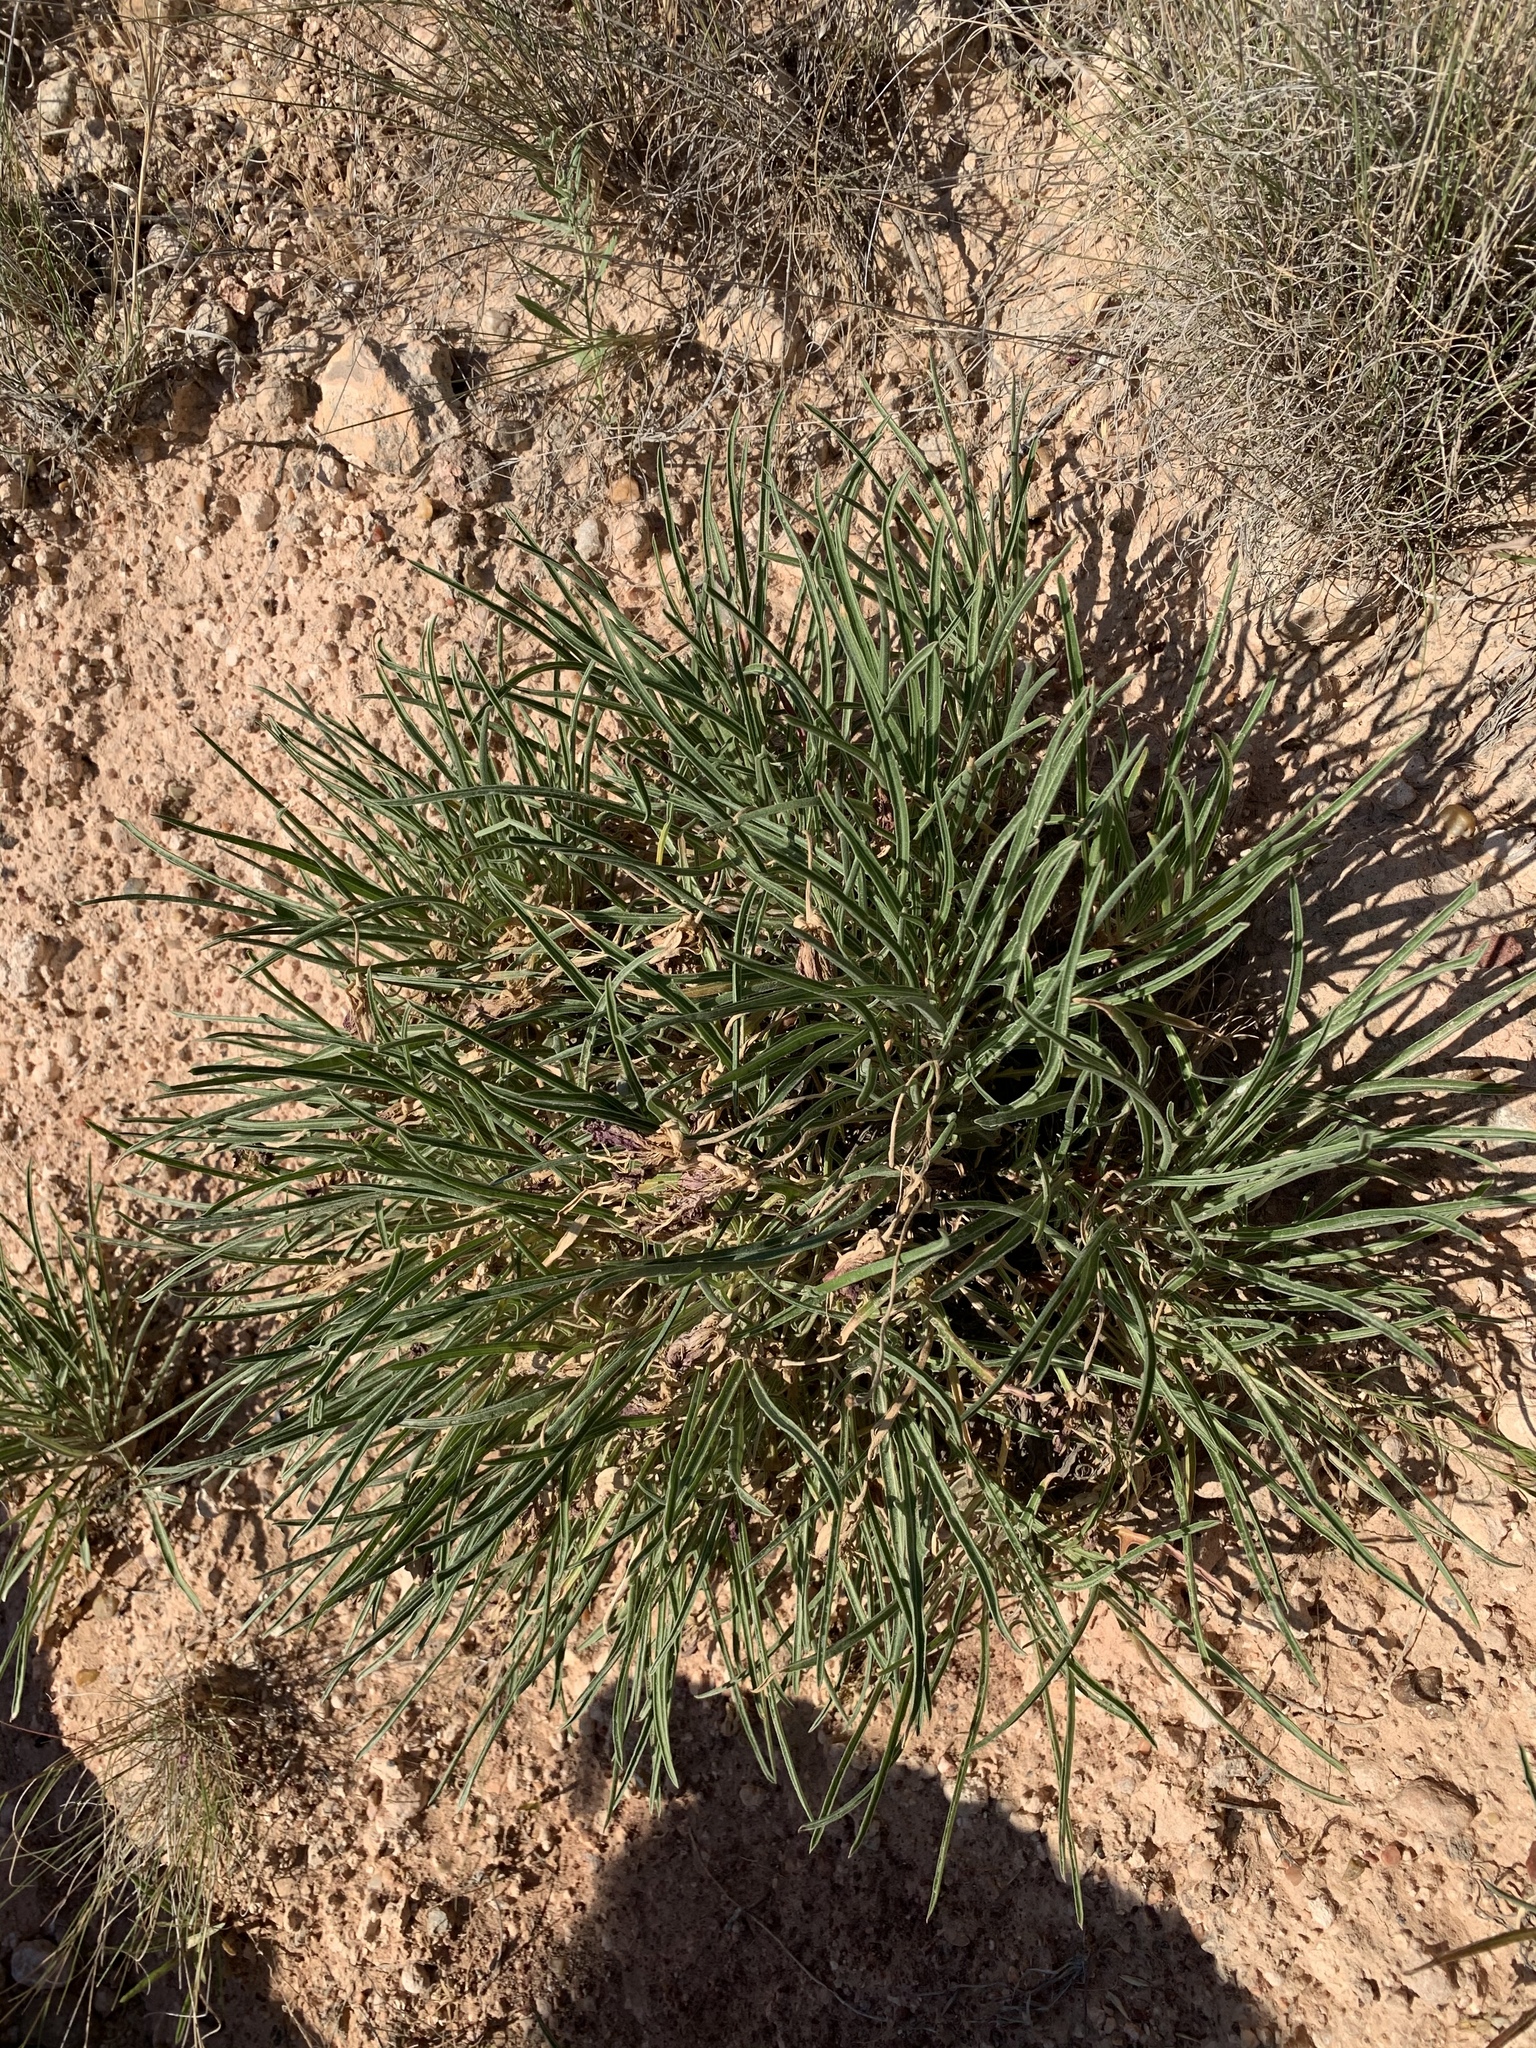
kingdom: Plantae
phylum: Tracheophyta
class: Magnoliopsida
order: Myrtales
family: Onagraceae
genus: Oenothera
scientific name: Oenothera coryi
